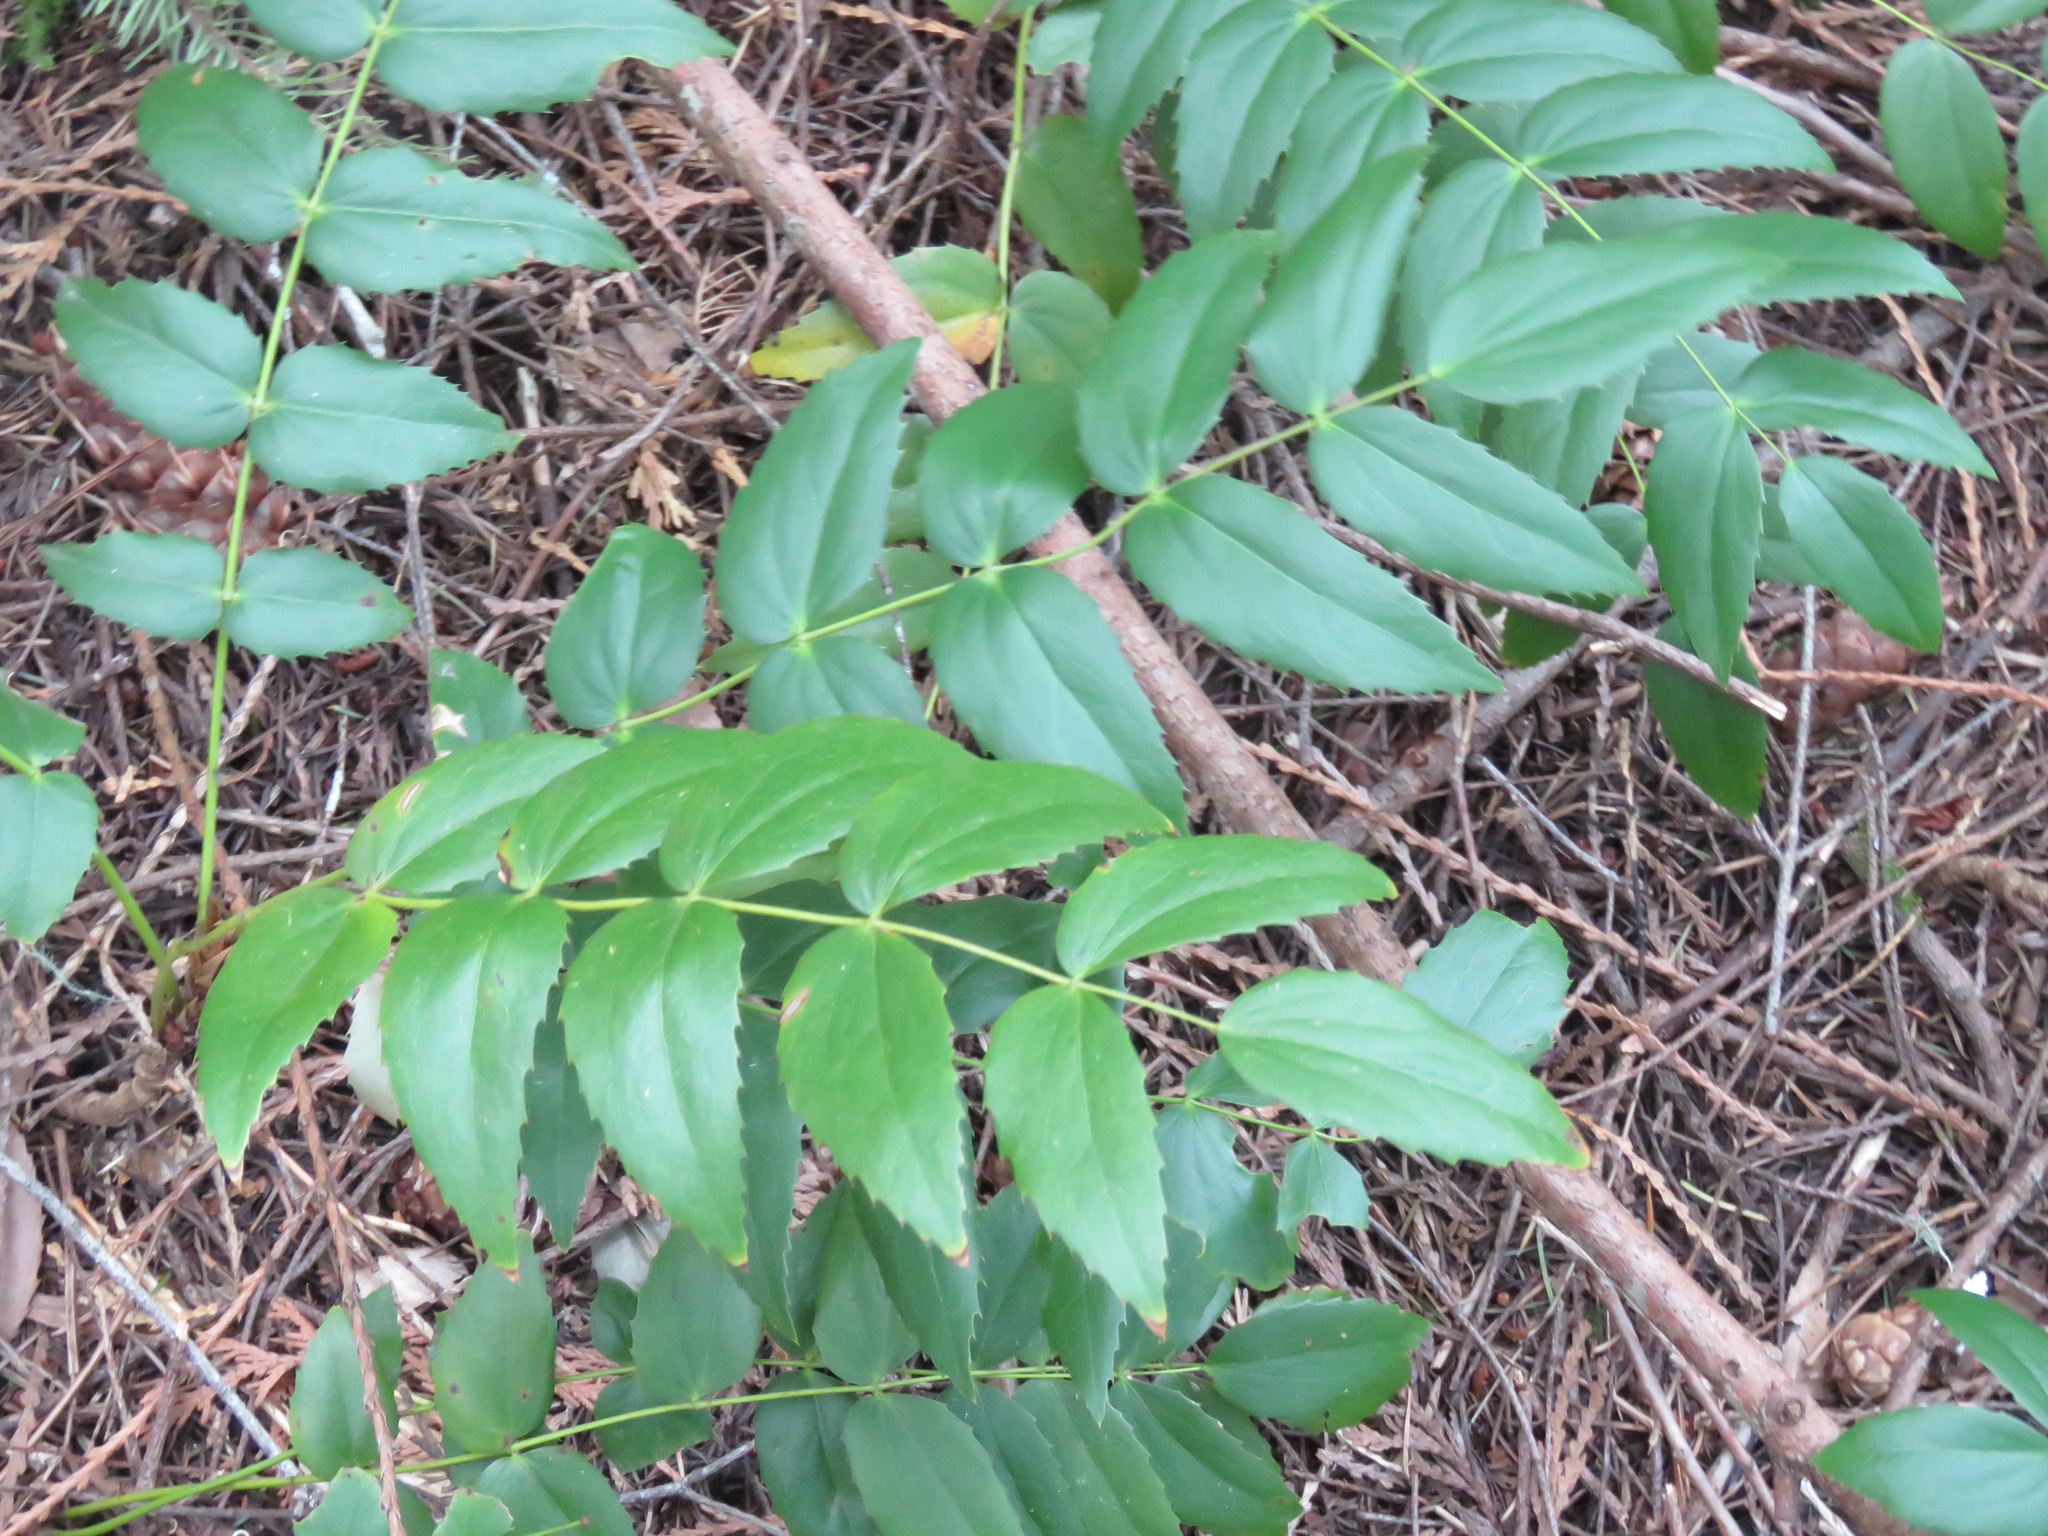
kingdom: Plantae
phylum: Tracheophyta
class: Magnoliopsida
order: Ranunculales
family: Berberidaceae
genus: Mahonia
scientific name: Mahonia nervosa
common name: Cascade oregon-grape
